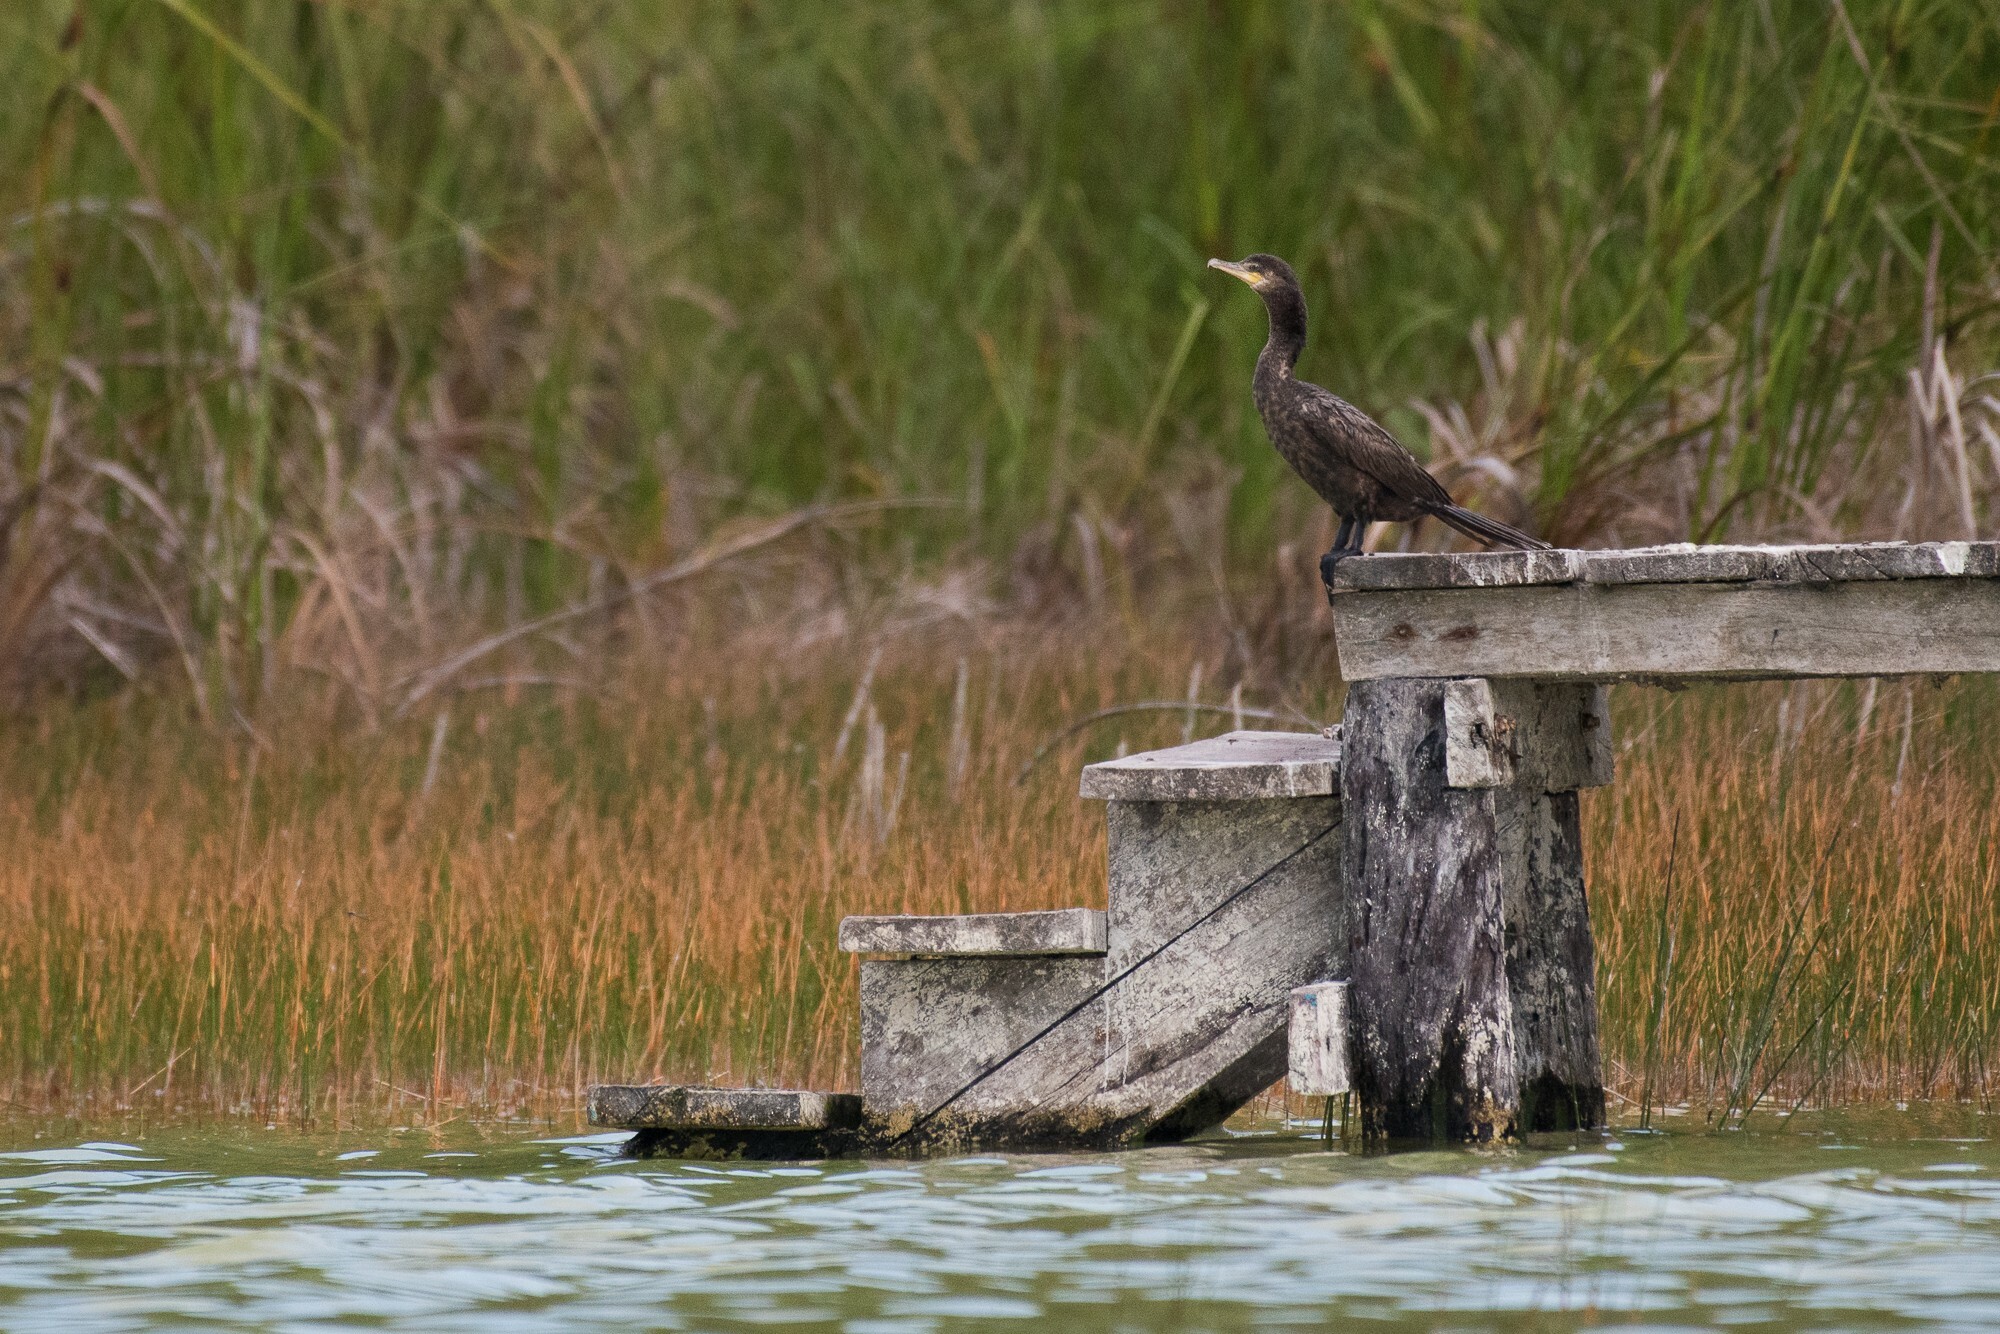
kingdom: Animalia
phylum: Chordata
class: Aves
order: Suliformes
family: Phalacrocoracidae
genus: Phalacrocorax
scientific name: Phalacrocorax brasilianus
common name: Neotropic cormorant
